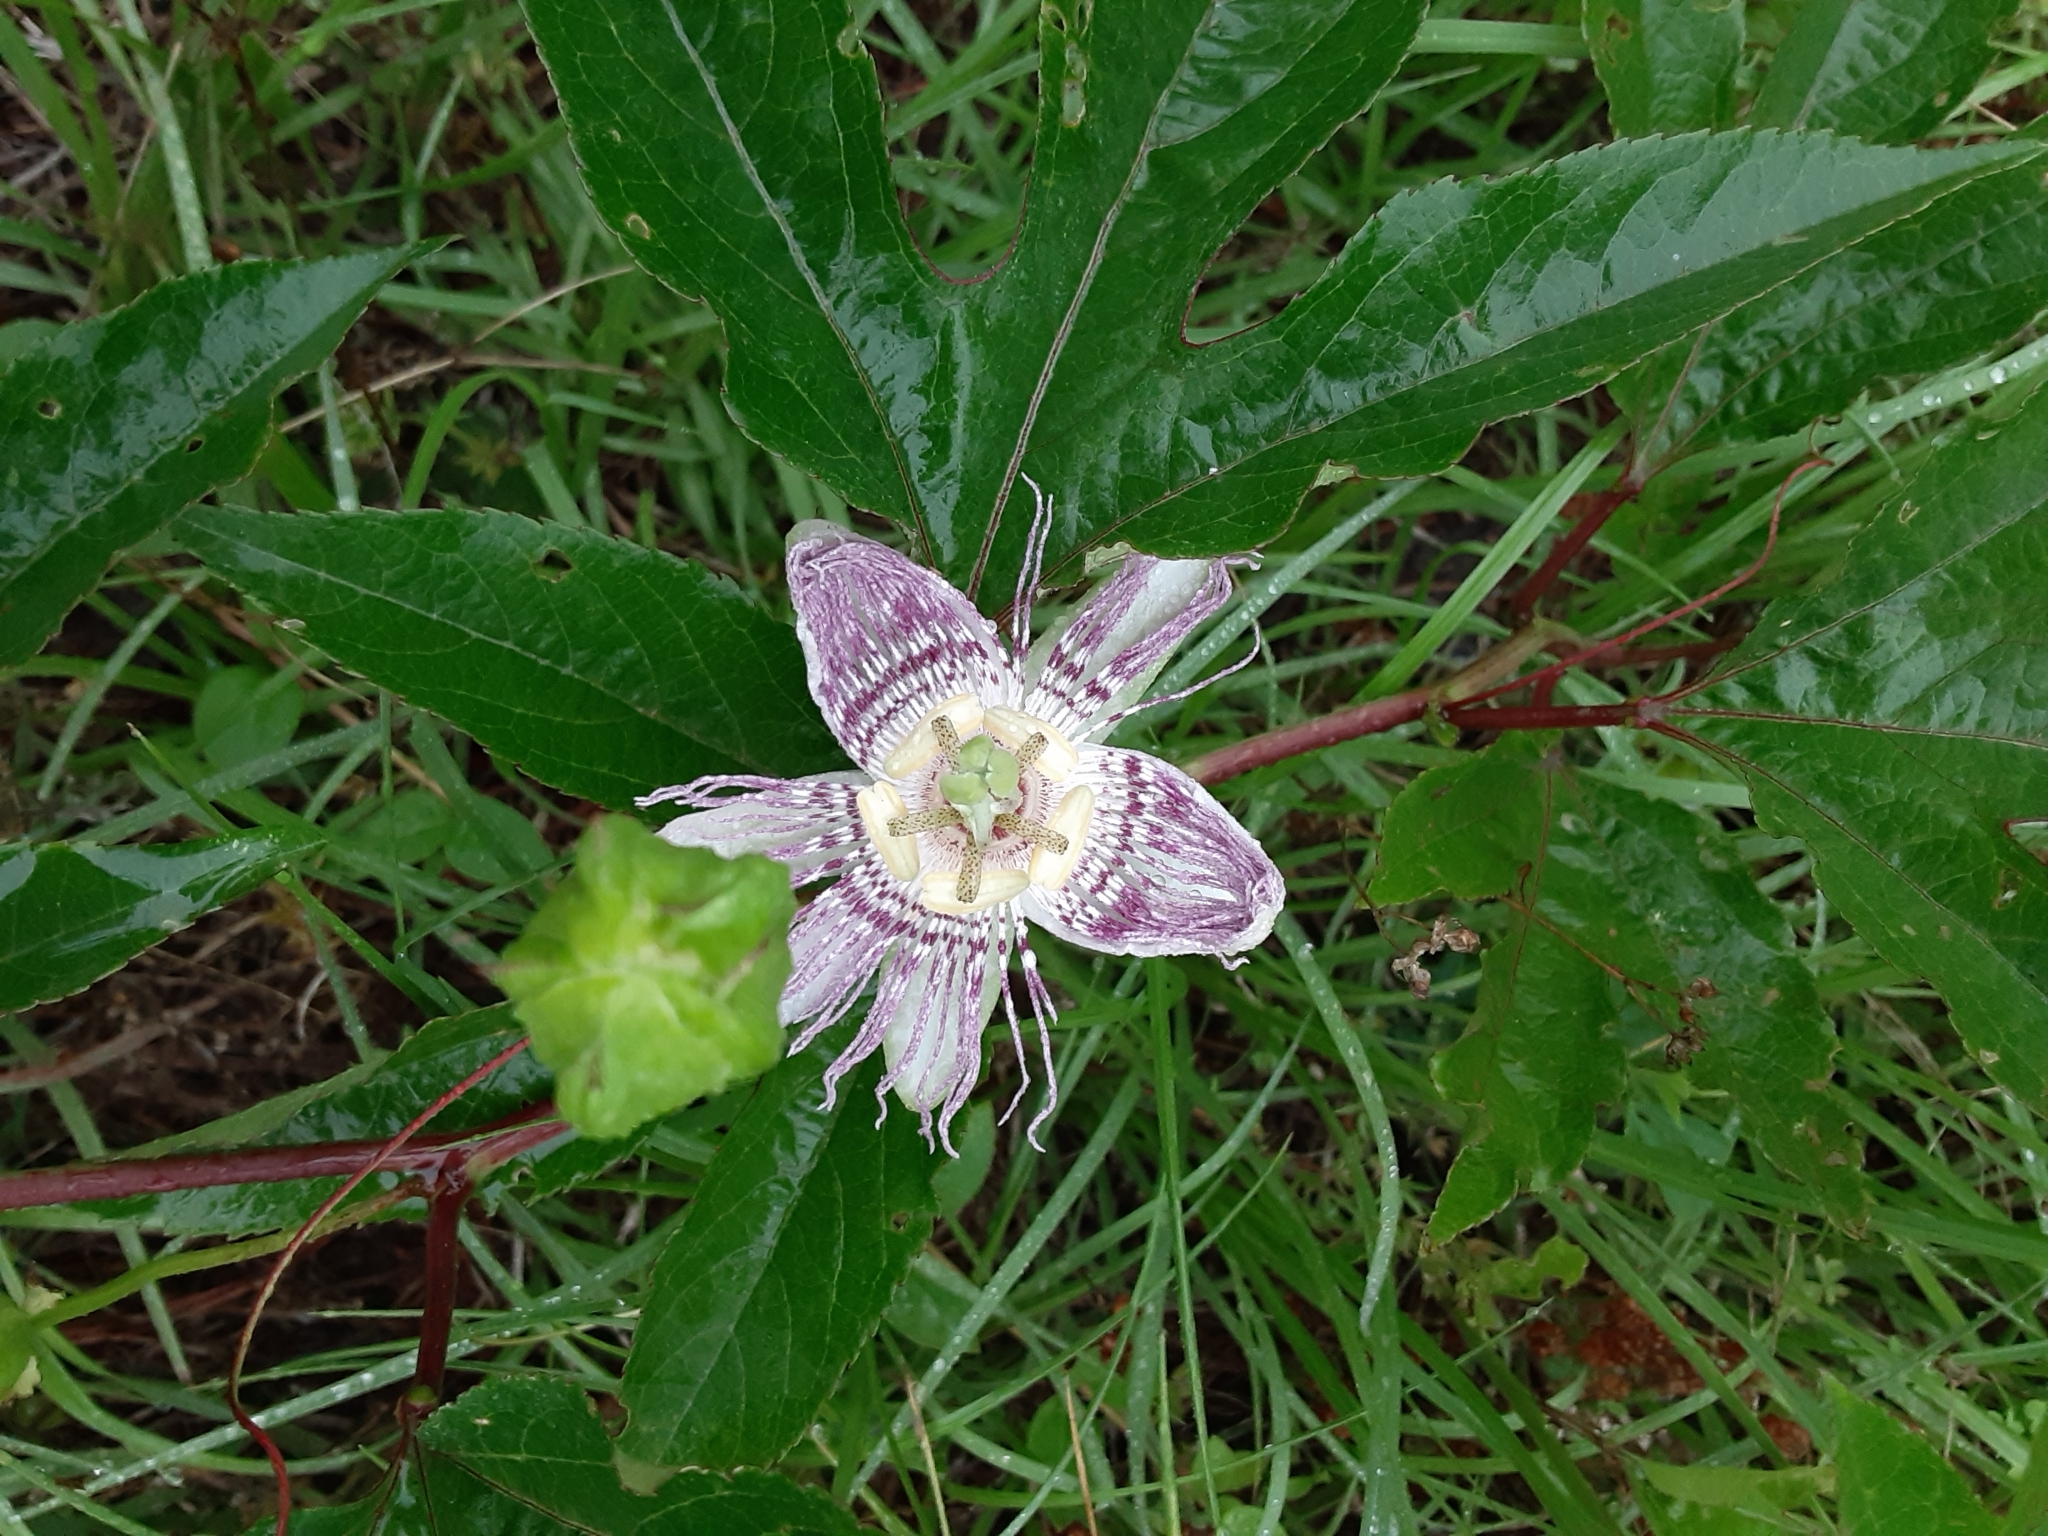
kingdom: Plantae
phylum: Tracheophyta
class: Magnoliopsida
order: Malpighiales
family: Passifloraceae
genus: Passiflora
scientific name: Passiflora incarnata
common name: Apricot-vine
